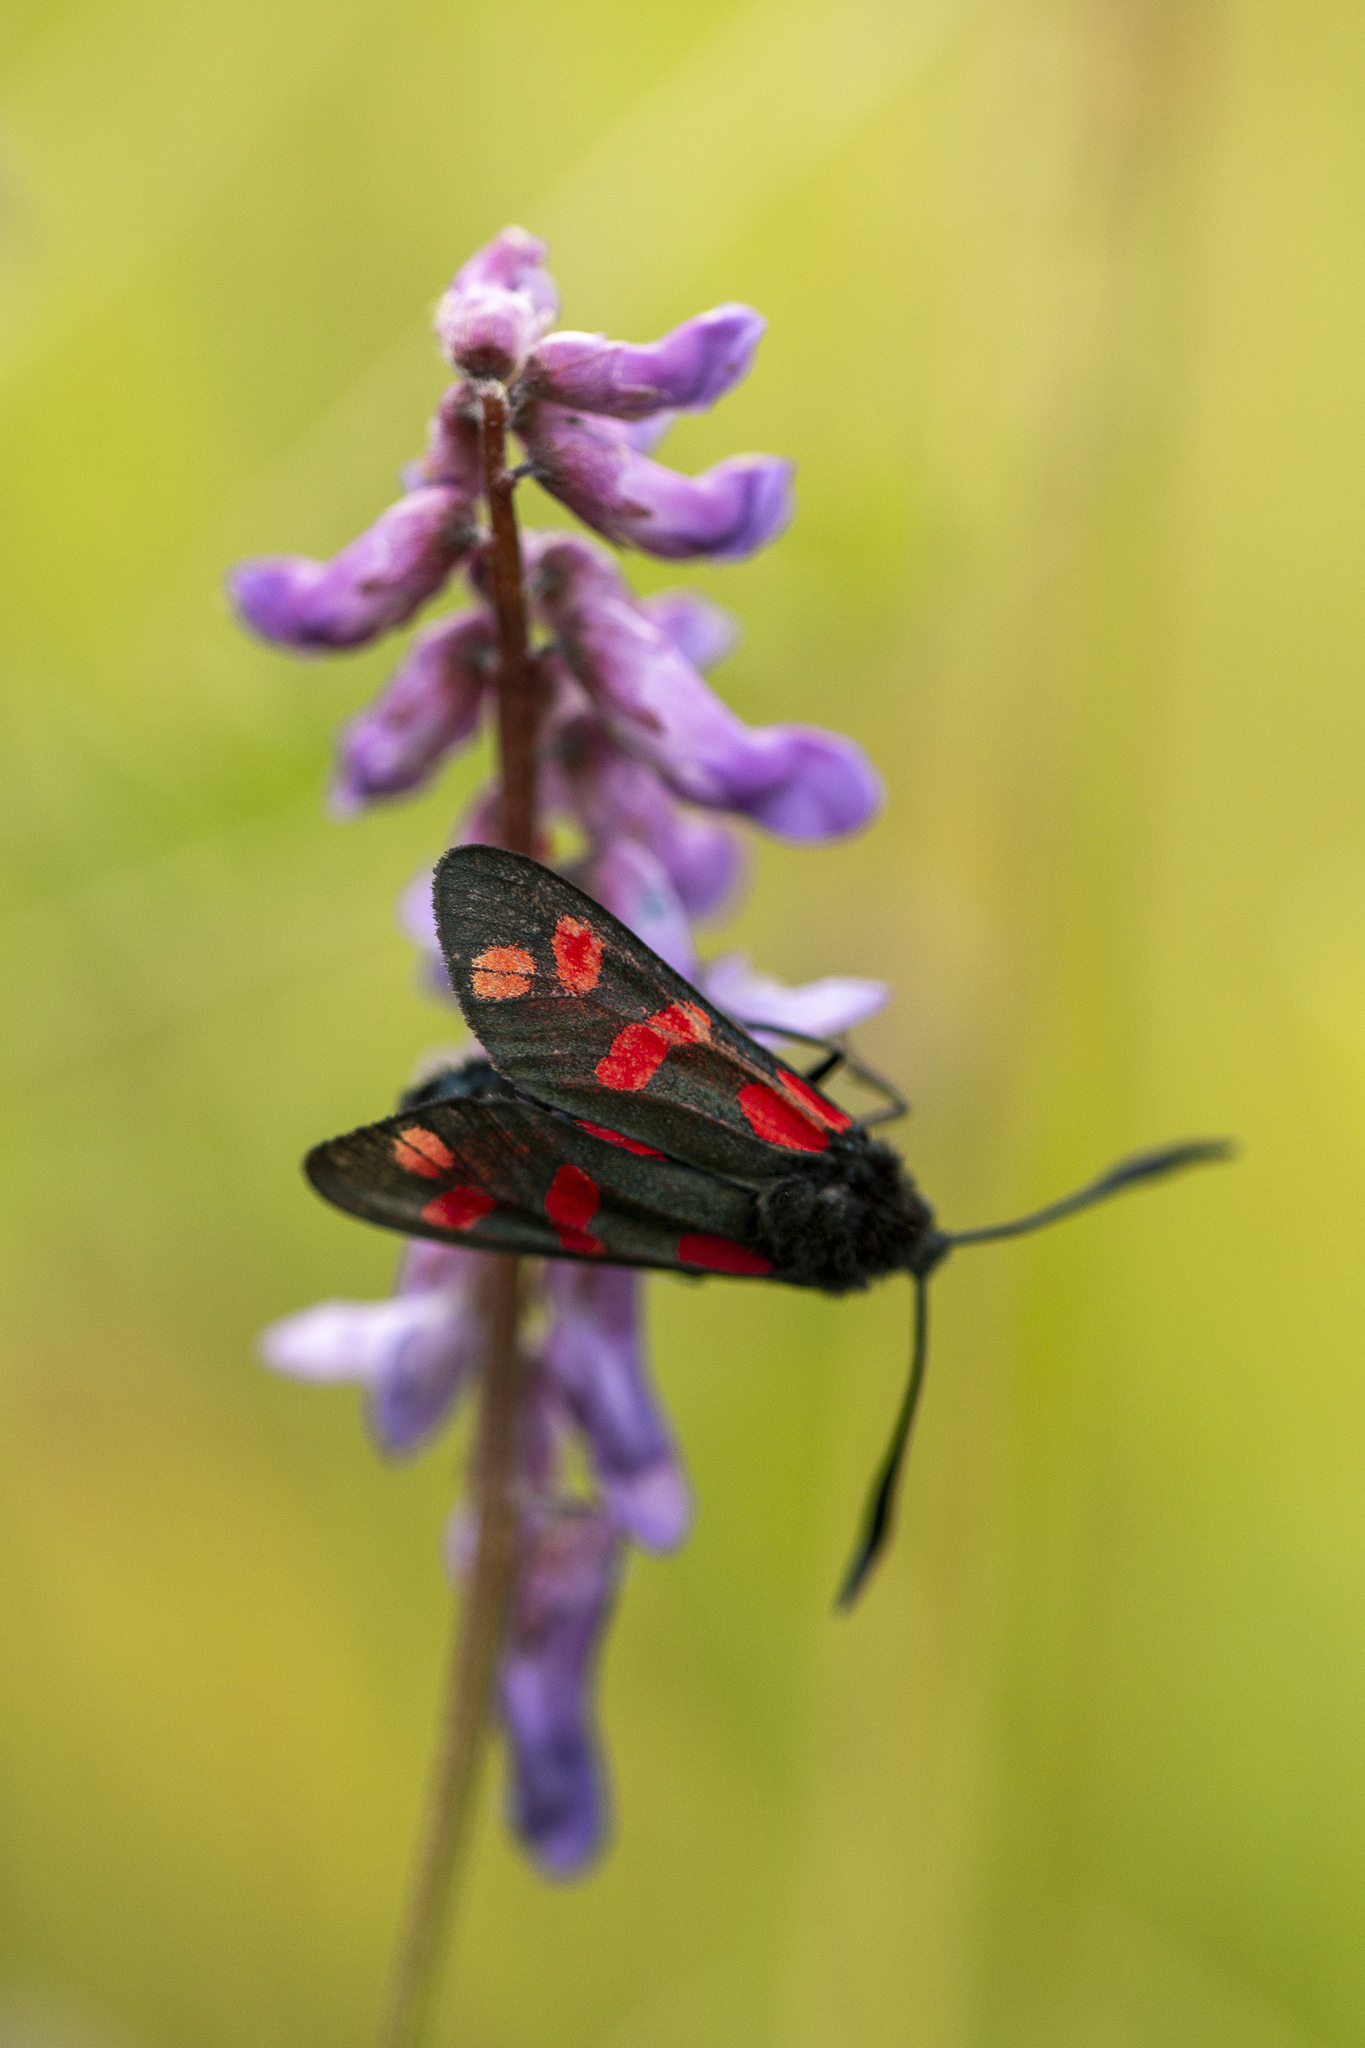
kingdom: Animalia
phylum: Arthropoda
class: Insecta
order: Lepidoptera
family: Zygaenidae
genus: Zygaena
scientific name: Zygaena filipendulae
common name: Six-spot burnet
